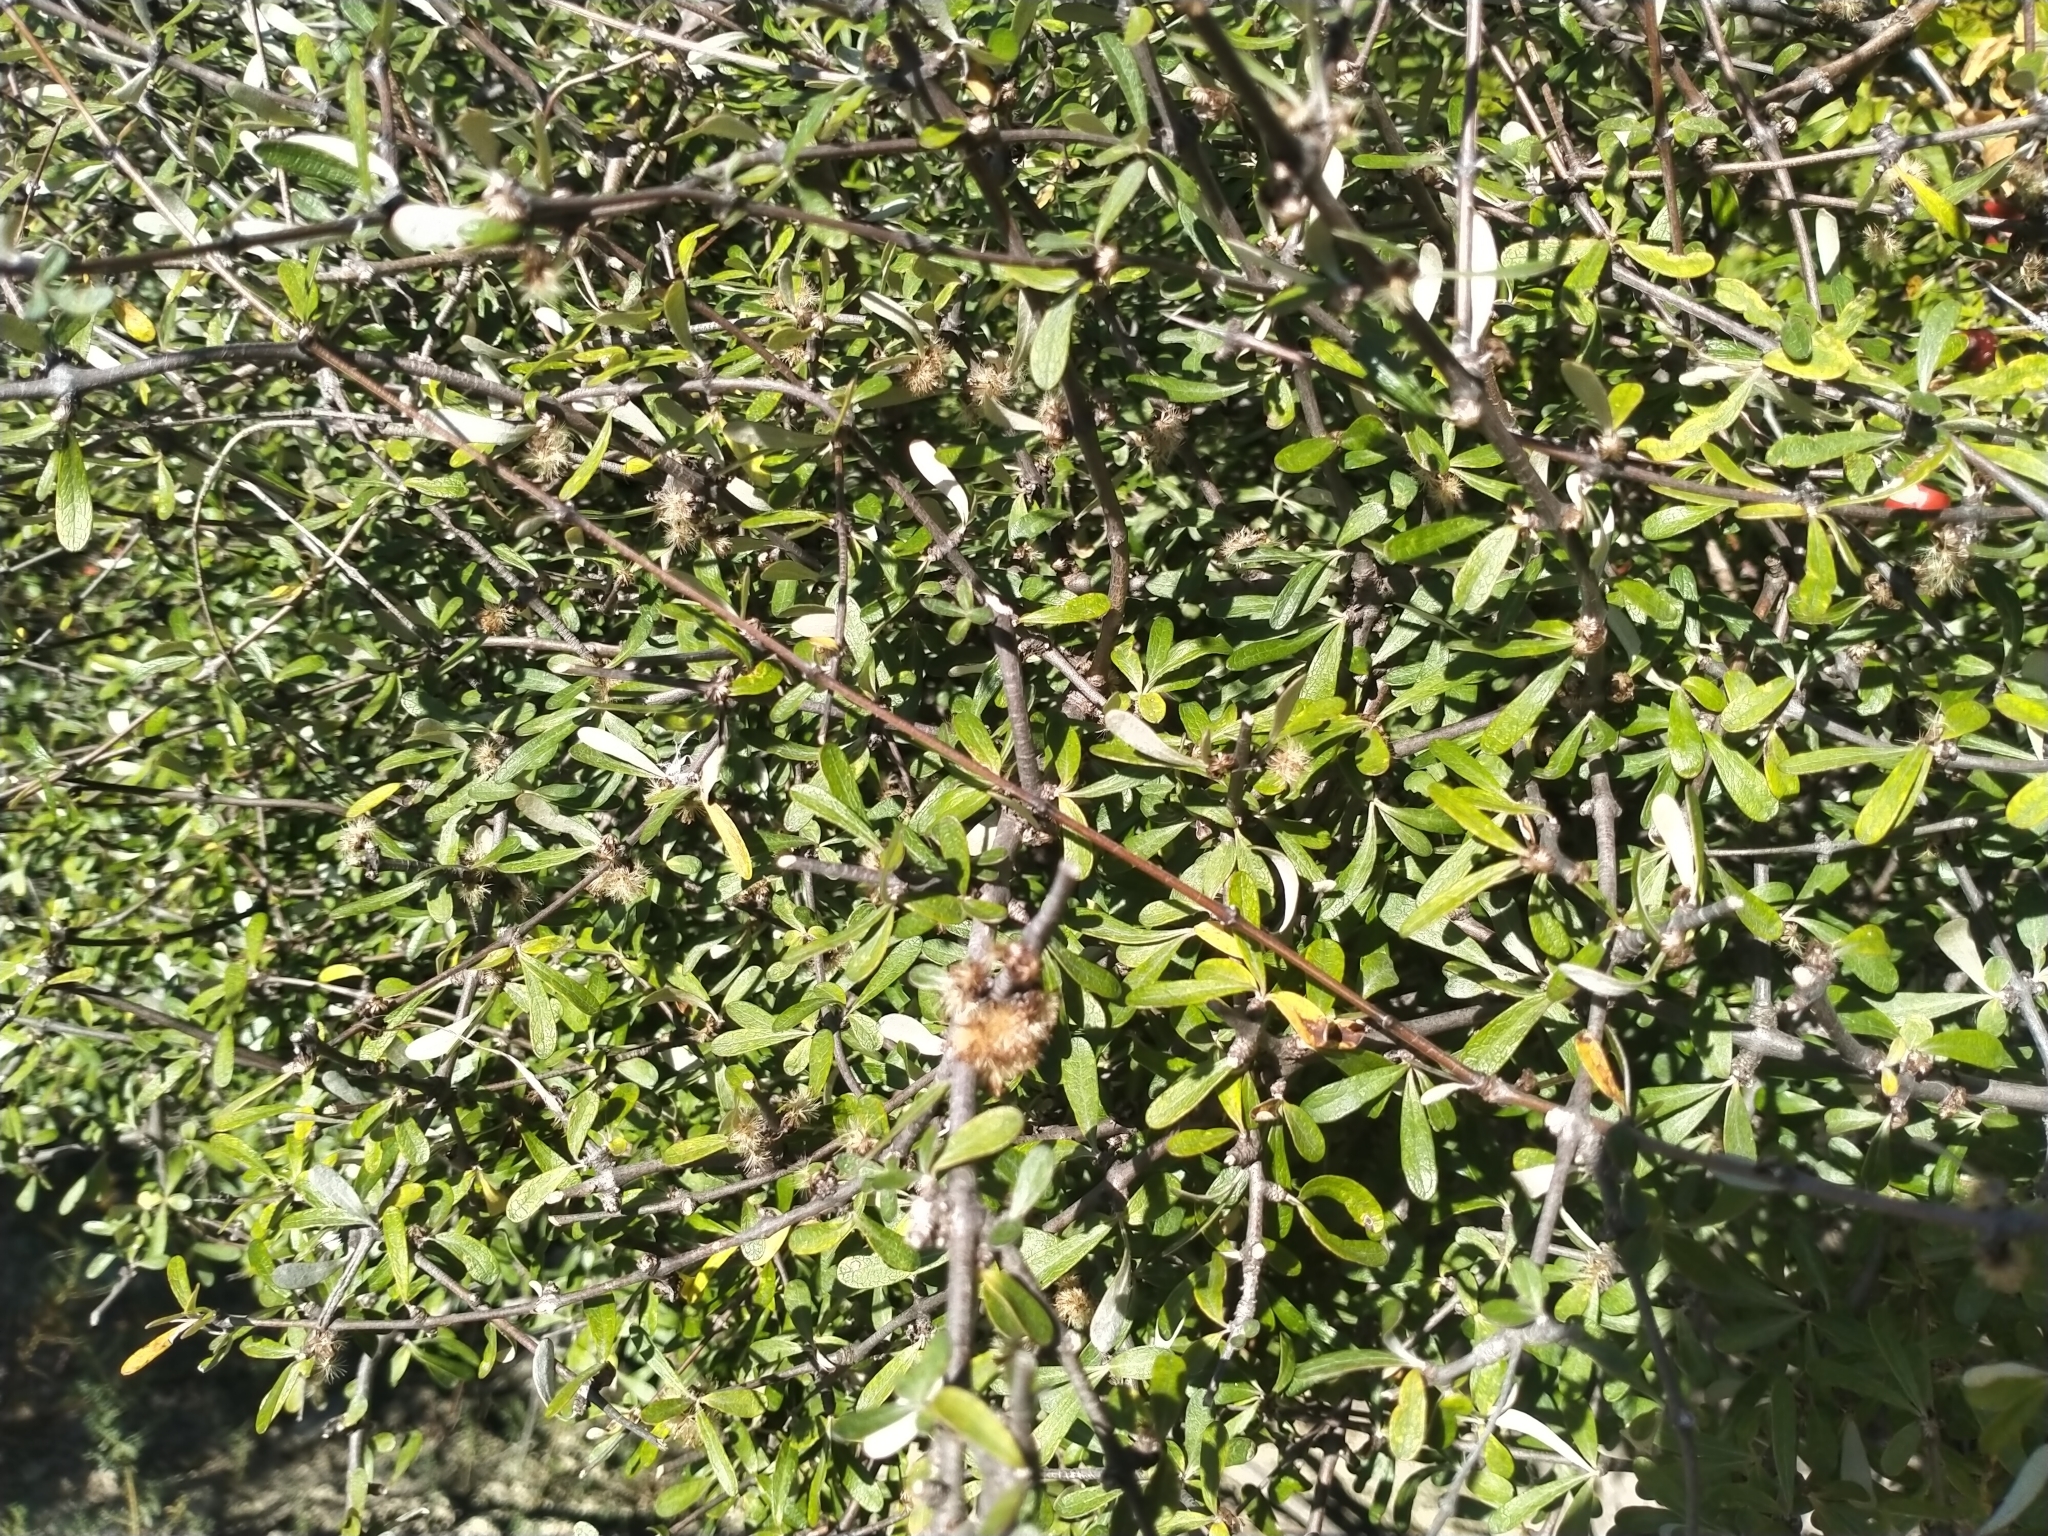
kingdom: Plantae
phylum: Tracheophyta
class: Magnoliopsida
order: Asterales
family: Asteraceae
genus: Olearia
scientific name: Olearia odorata
